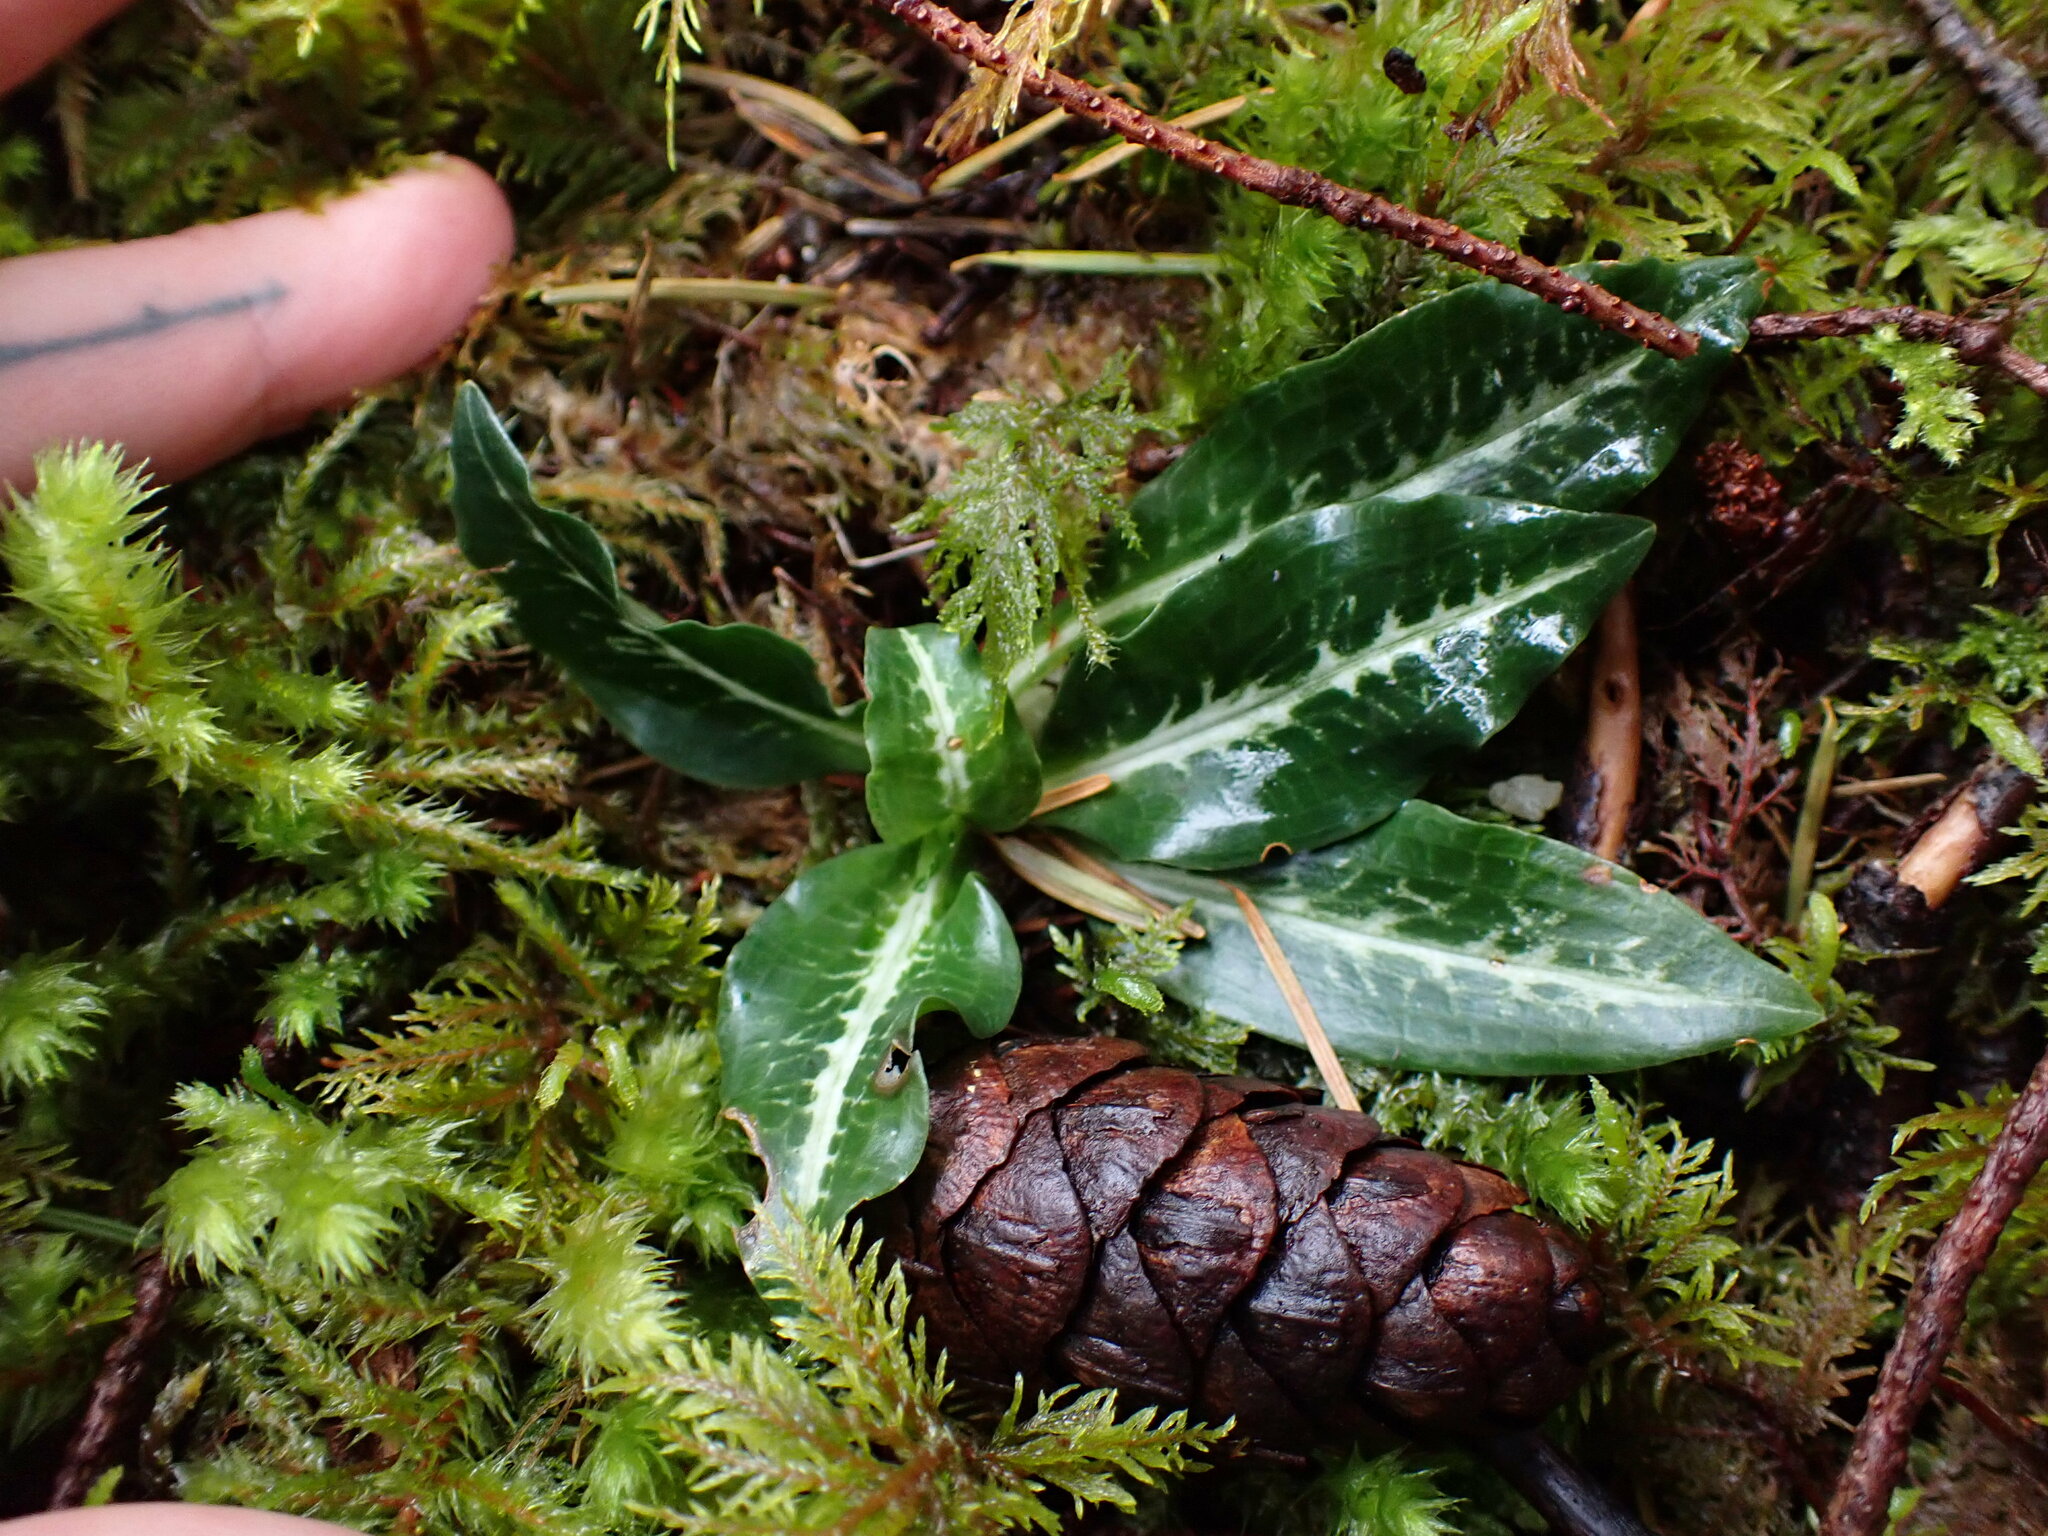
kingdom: Plantae
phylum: Tracheophyta
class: Liliopsida
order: Asparagales
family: Orchidaceae
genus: Goodyera
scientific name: Goodyera oblongifolia
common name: Giant rattlesnake-plantain
